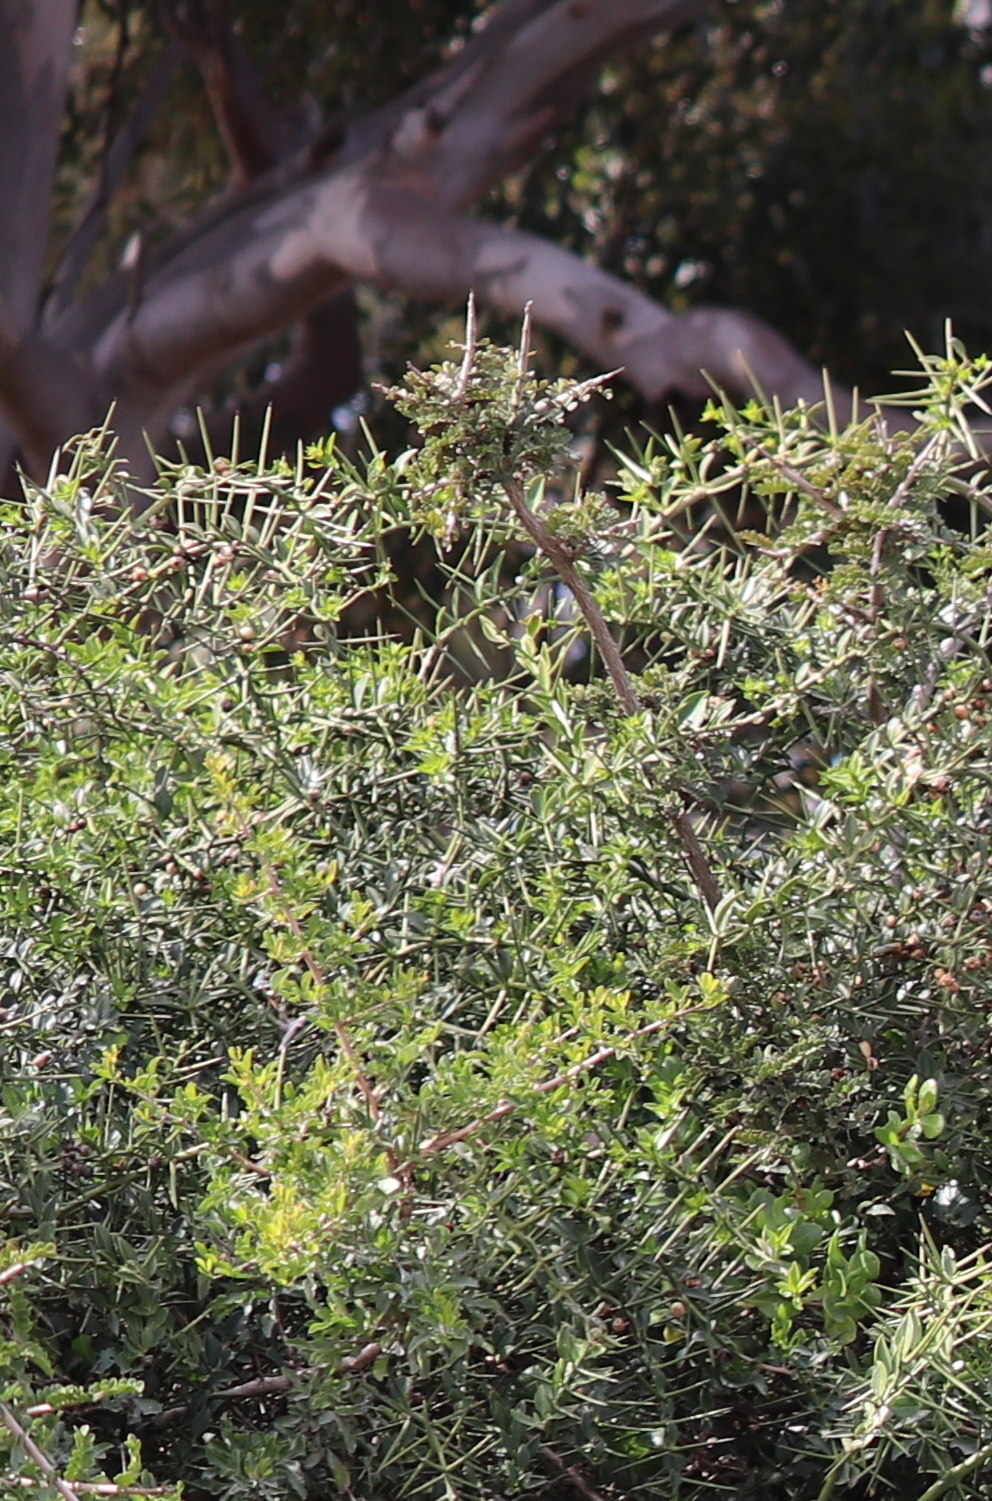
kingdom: Plantae
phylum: Tracheophyta
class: Magnoliopsida
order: Brassicales
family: Salvadoraceae
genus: Azima
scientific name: Azima tetracantha
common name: Needle bush
